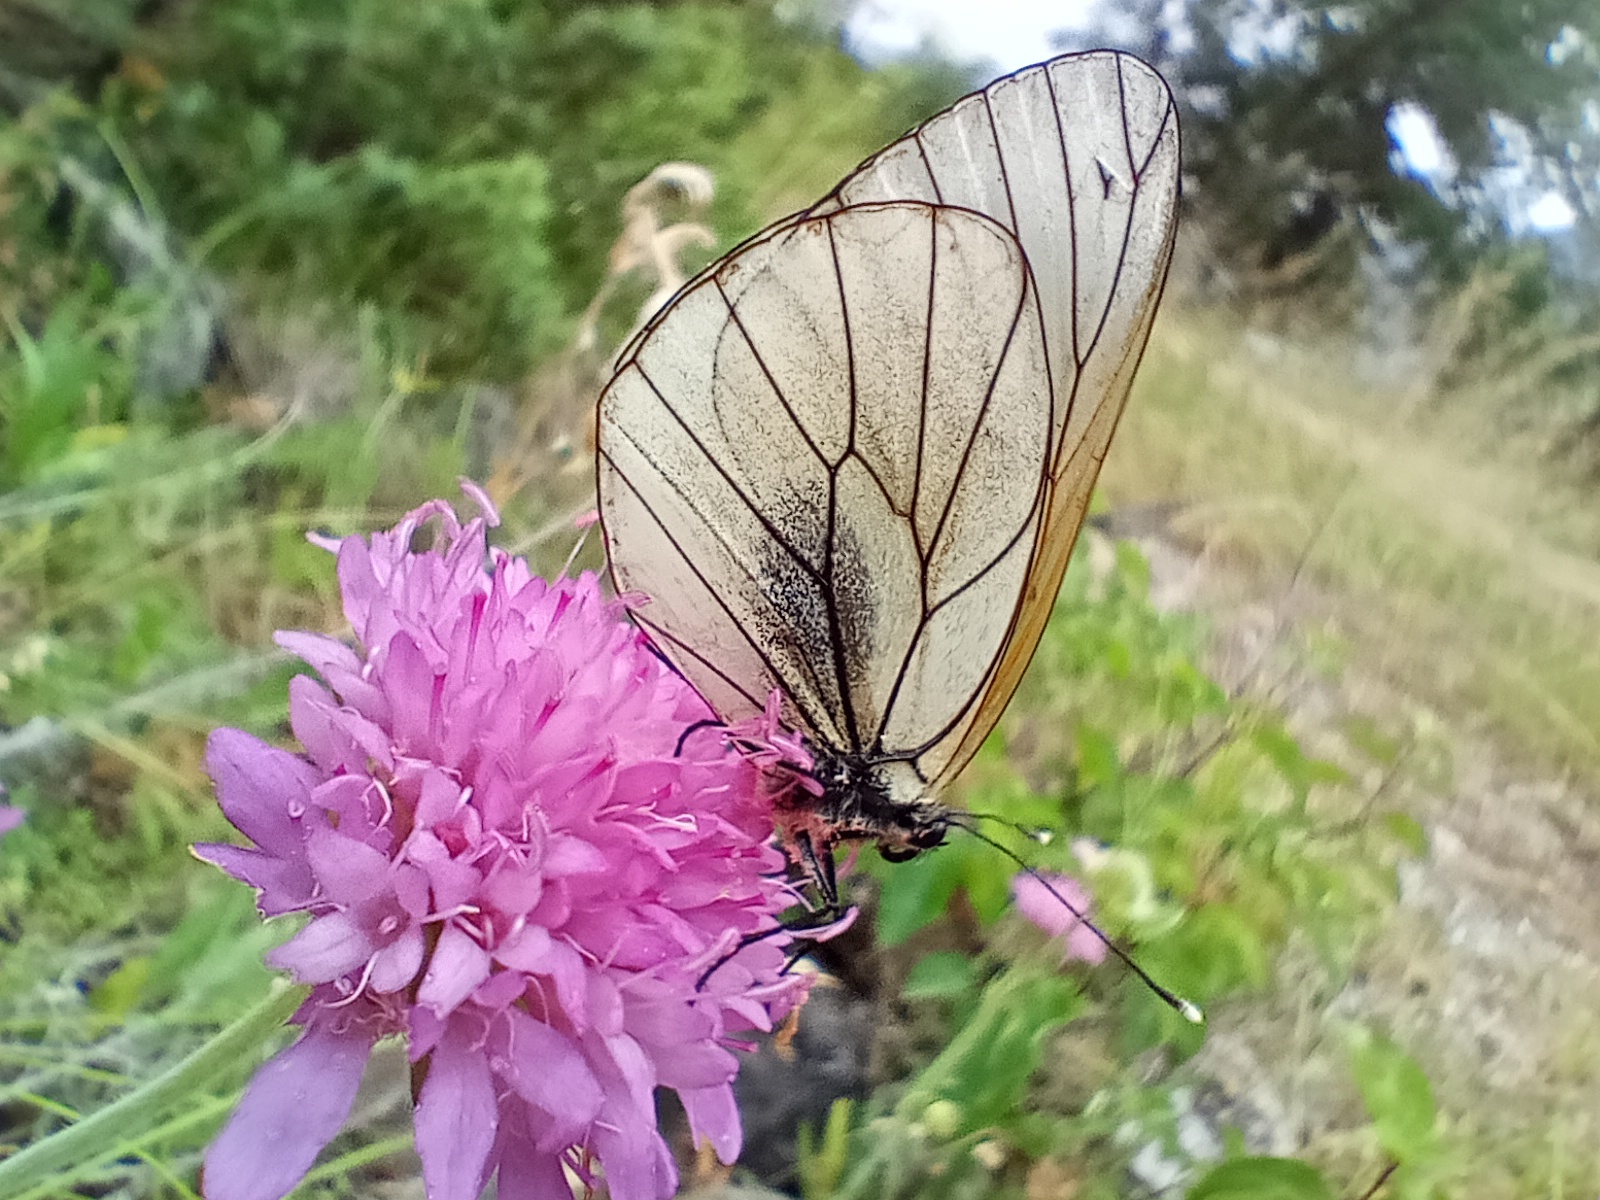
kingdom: Animalia
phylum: Arthropoda
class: Insecta
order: Lepidoptera
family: Pieridae
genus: Aporia
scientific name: Aporia crataegi
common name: Black-veined white
